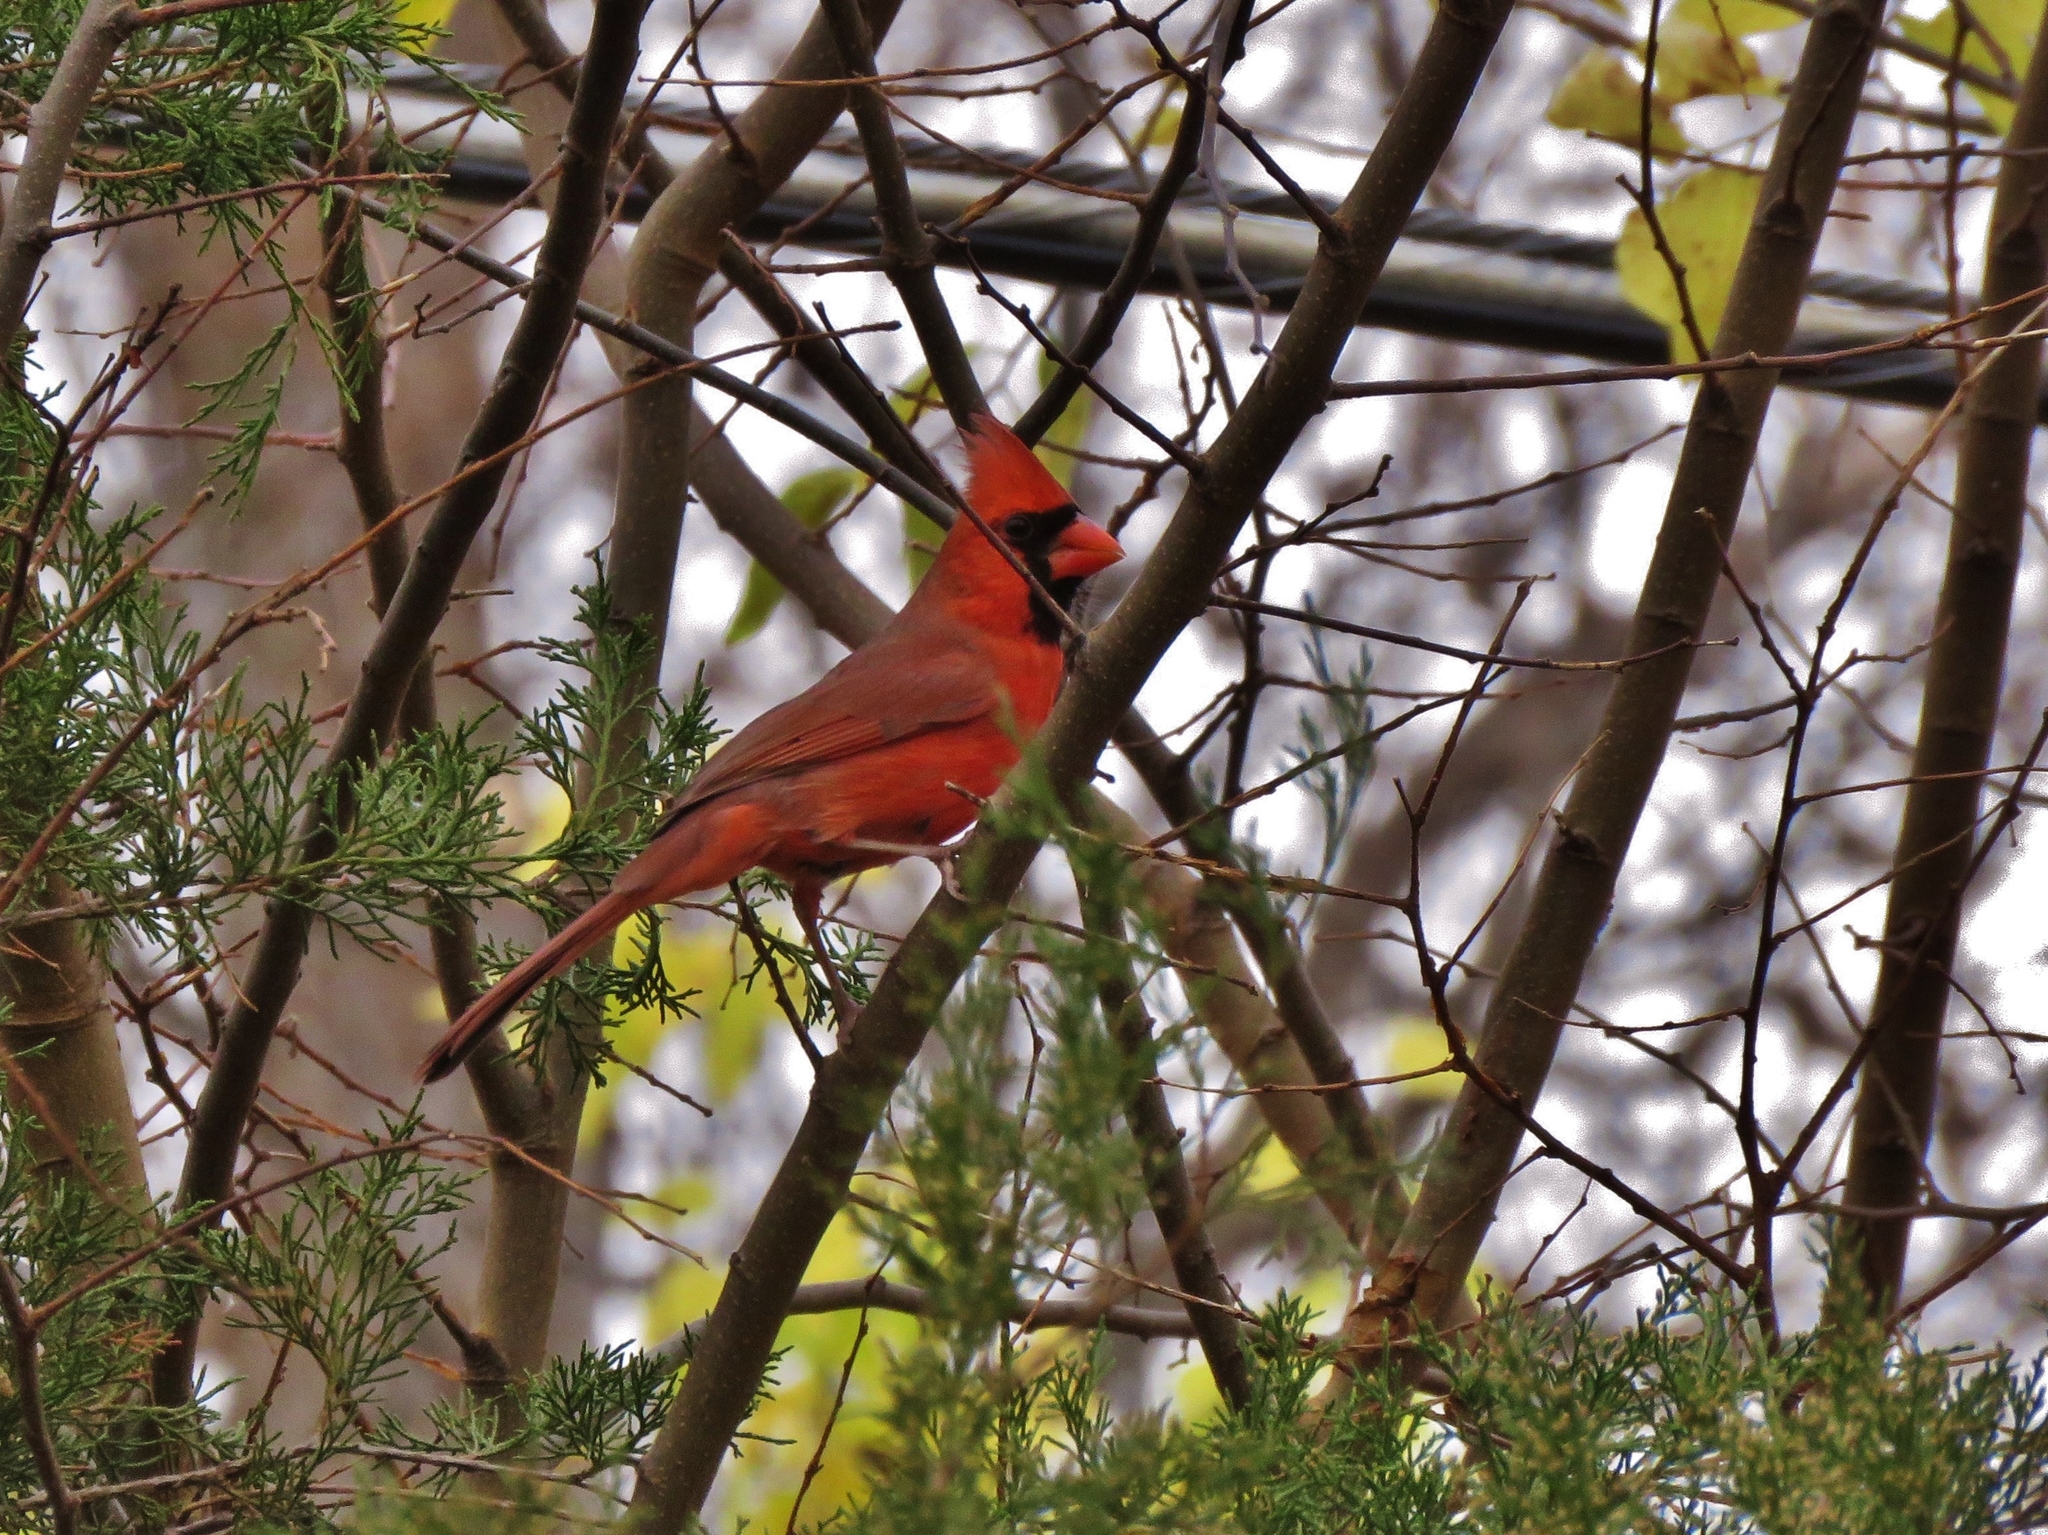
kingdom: Animalia
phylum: Chordata
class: Aves
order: Passeriformes
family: Cardinalidae
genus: Cardinalis
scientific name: Cardinalis cardinalis
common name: Northern cardinal
